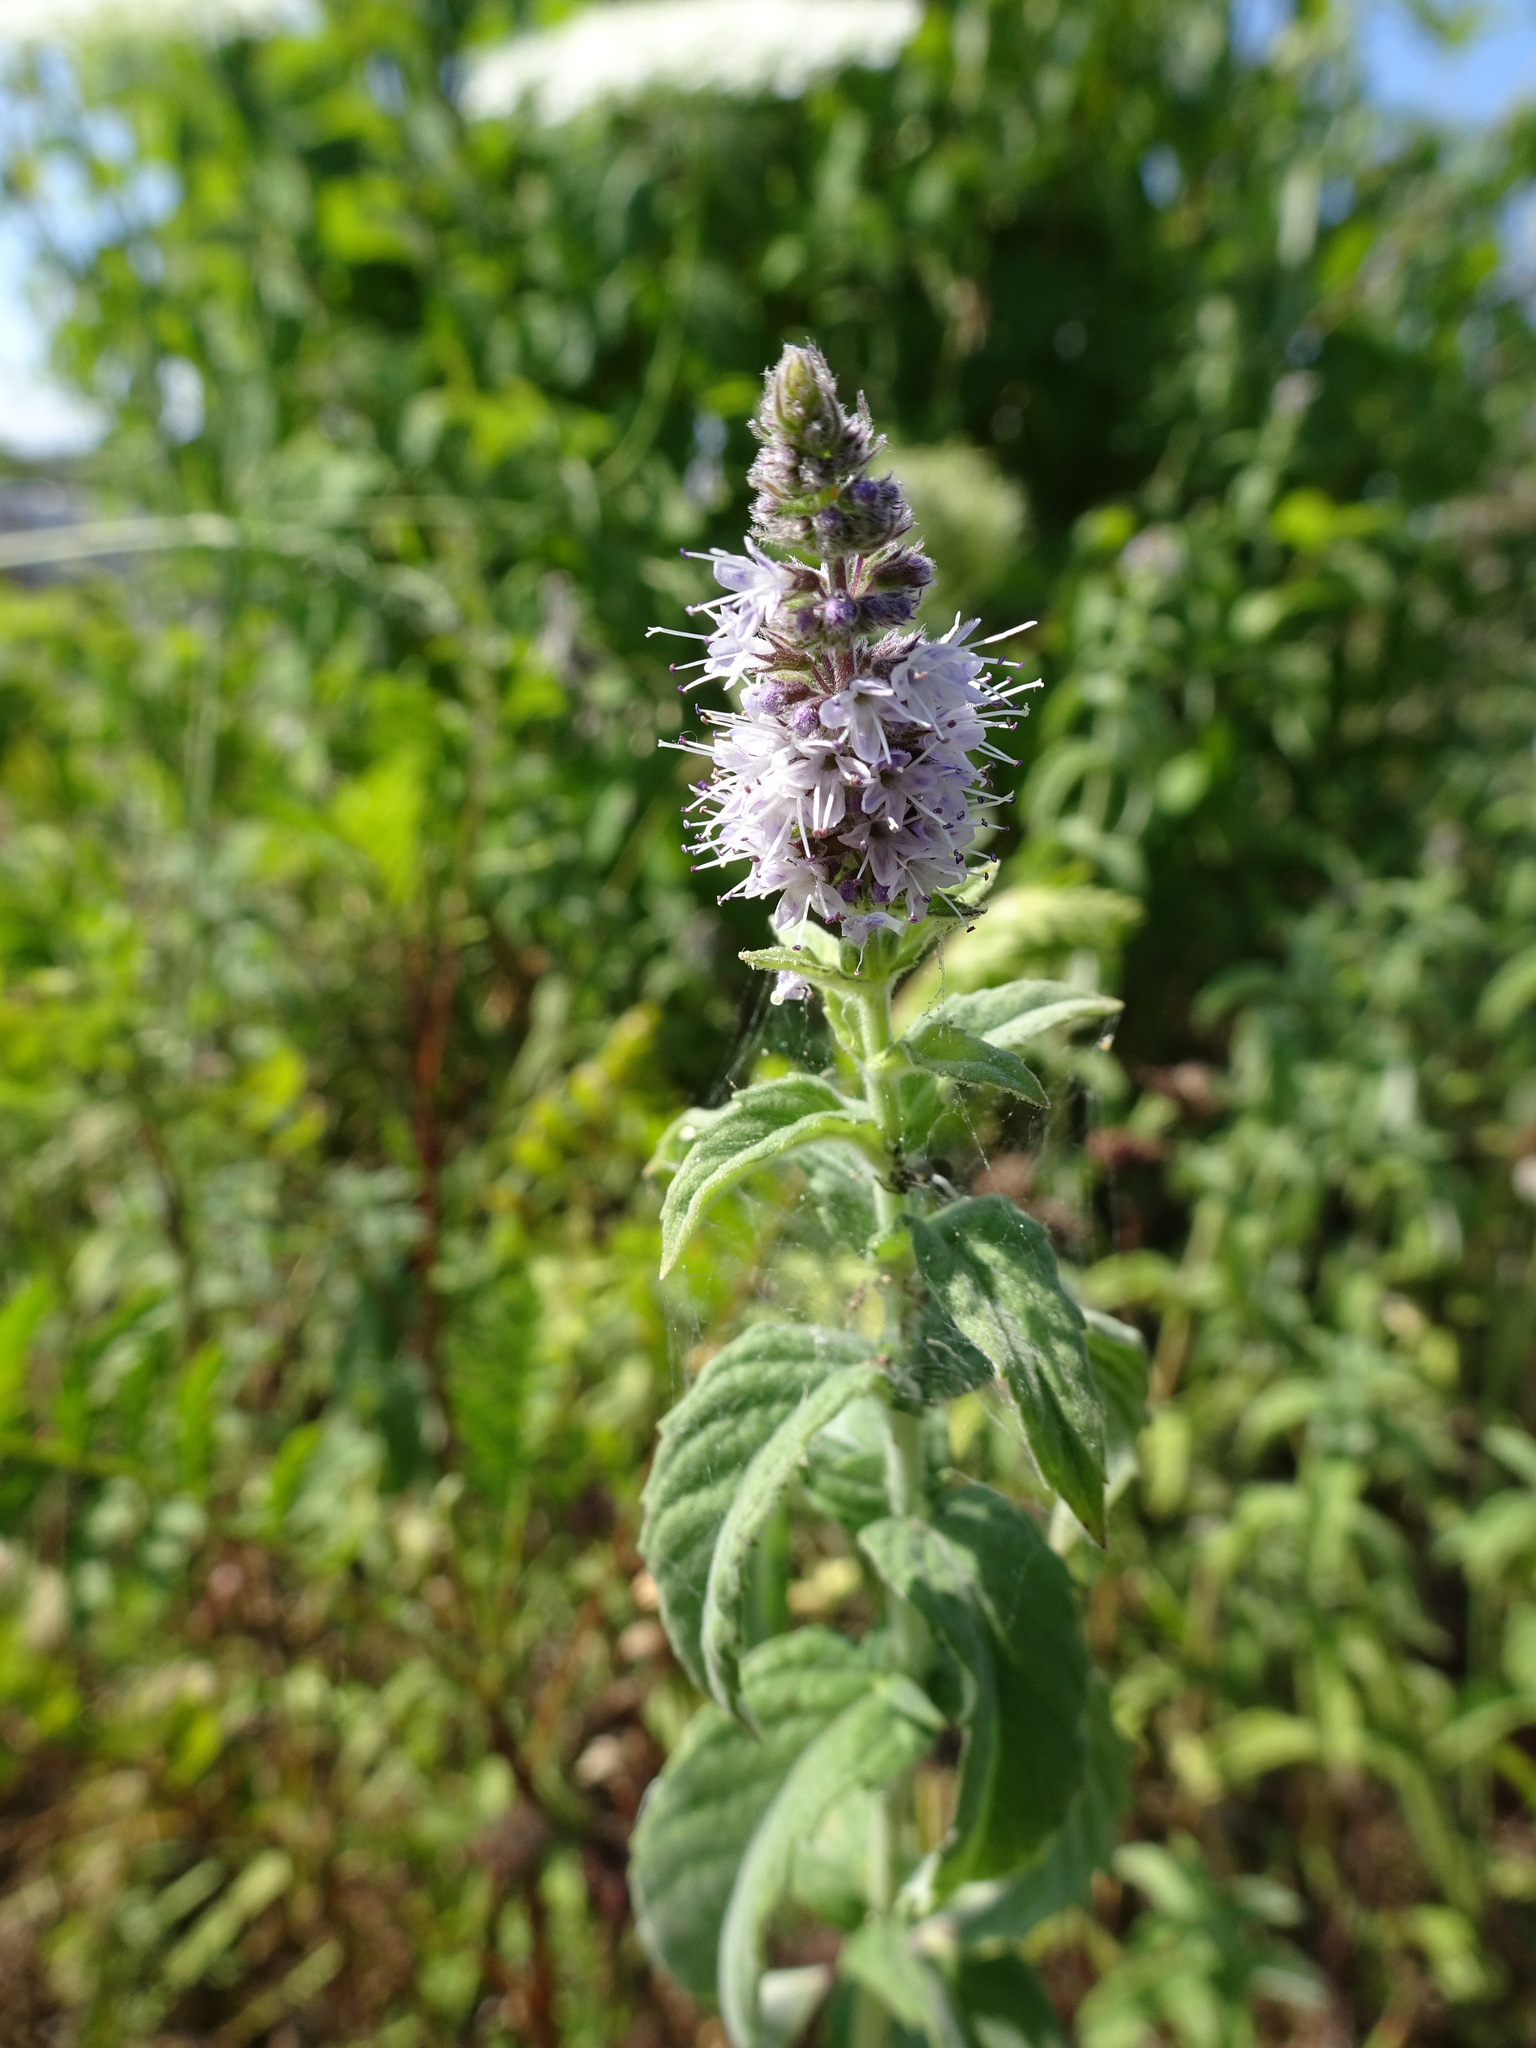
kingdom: Plantae
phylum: Tracheophyta
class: Magnoliopsida
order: Lamiales
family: Lamiaceae
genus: Mentha
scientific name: Mentha spicata
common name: Spearmint
